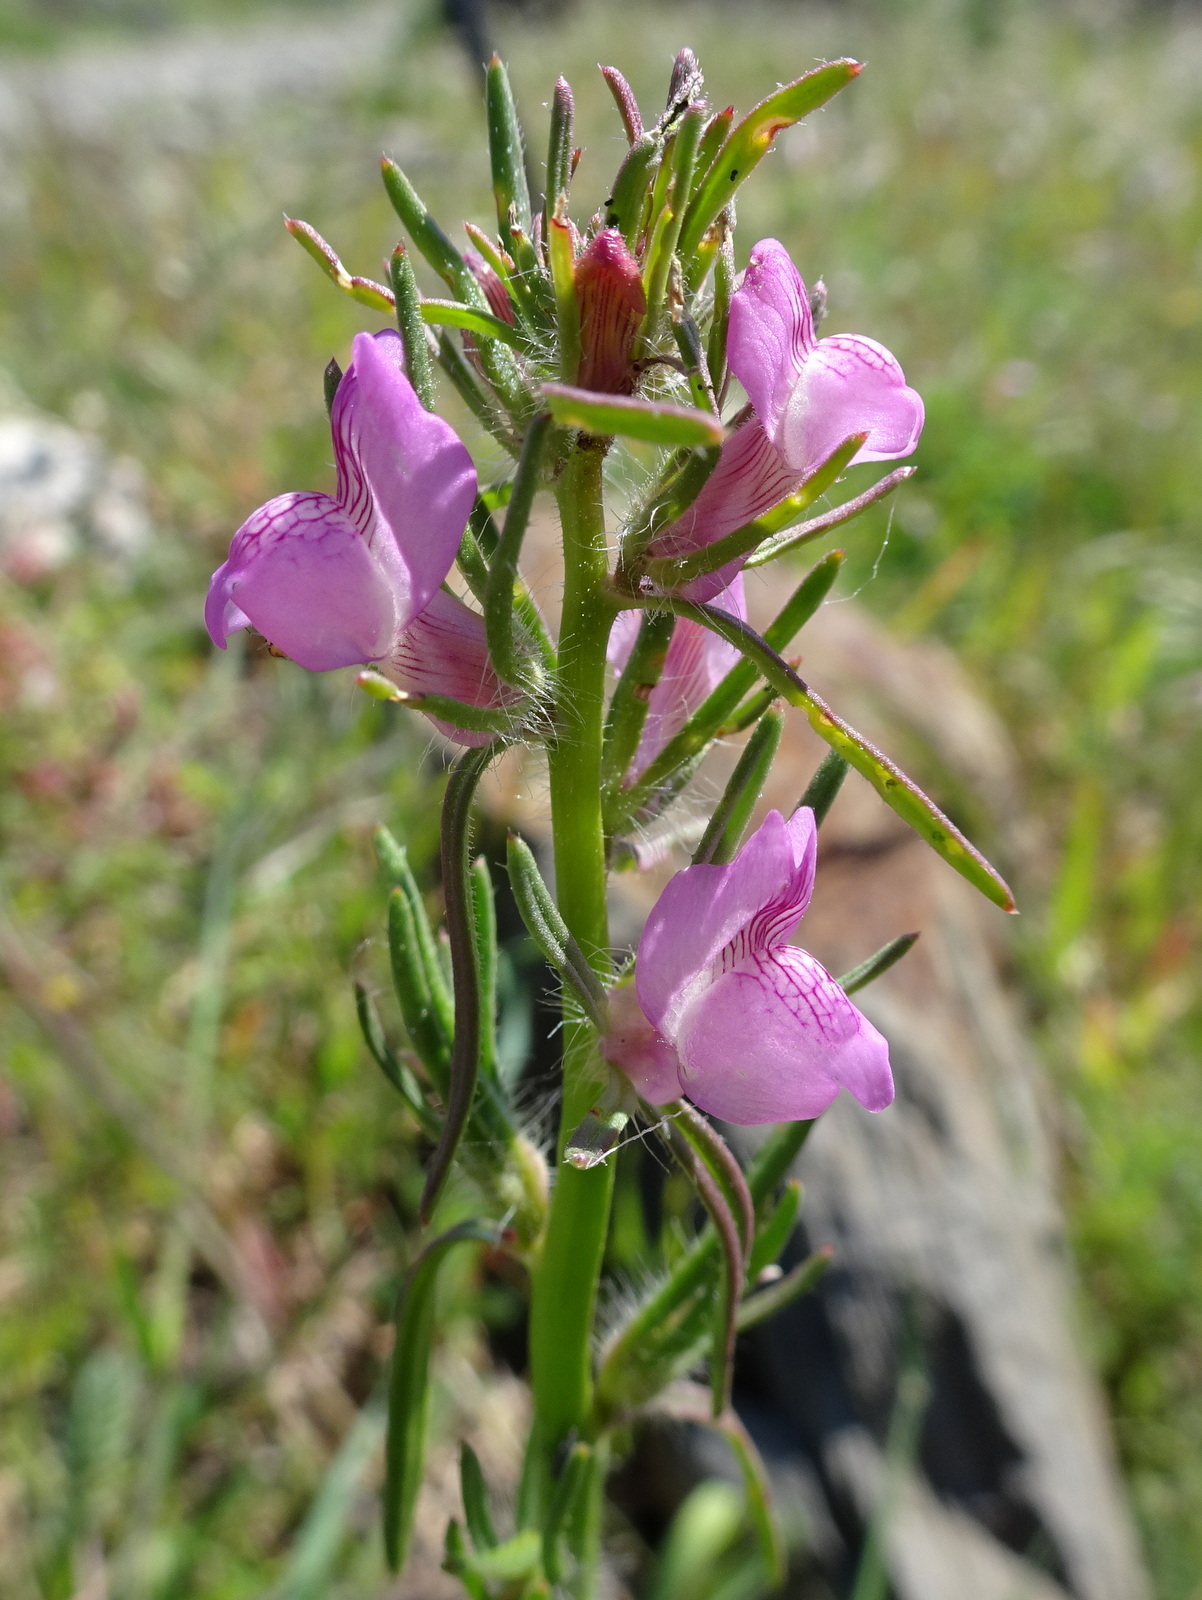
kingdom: Plantae
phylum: Tracheophyta
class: Magnoliopsida
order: Lamiales
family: Plantaginaceae
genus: Misopates
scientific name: Misopates orontium
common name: Weasel's-snout
